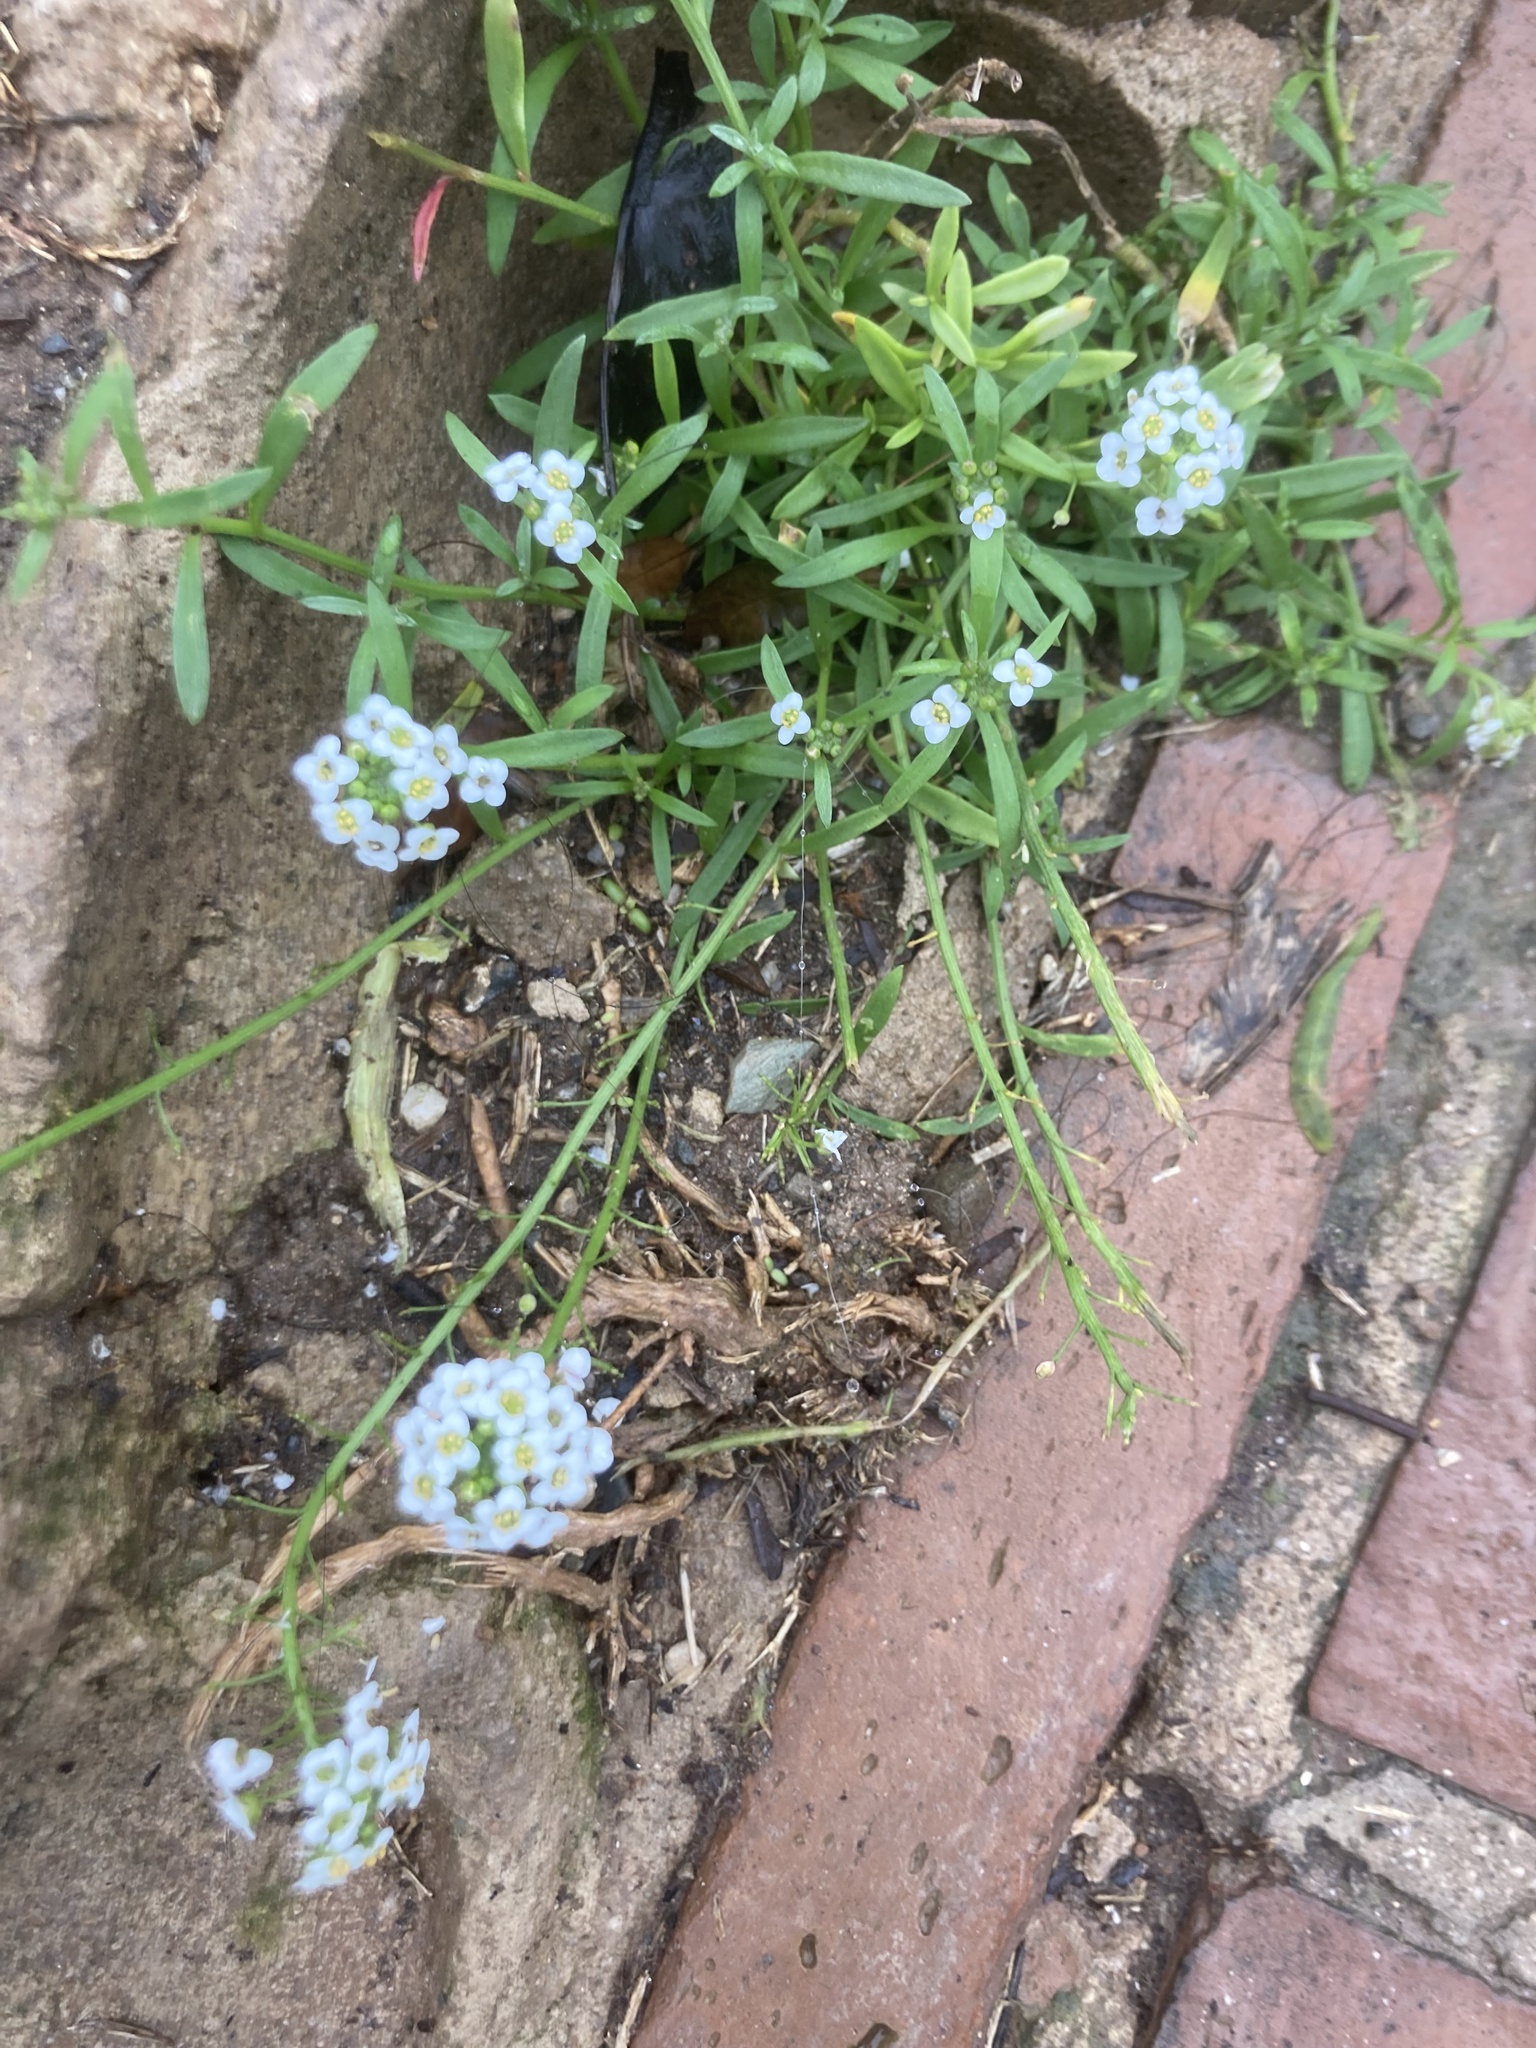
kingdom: Plantae
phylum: Tracheophyta
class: Magnoliopsida
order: Brassicales
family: Brassicaceae
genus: Lobularia
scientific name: Lobularia maritima
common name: Sweet alison
